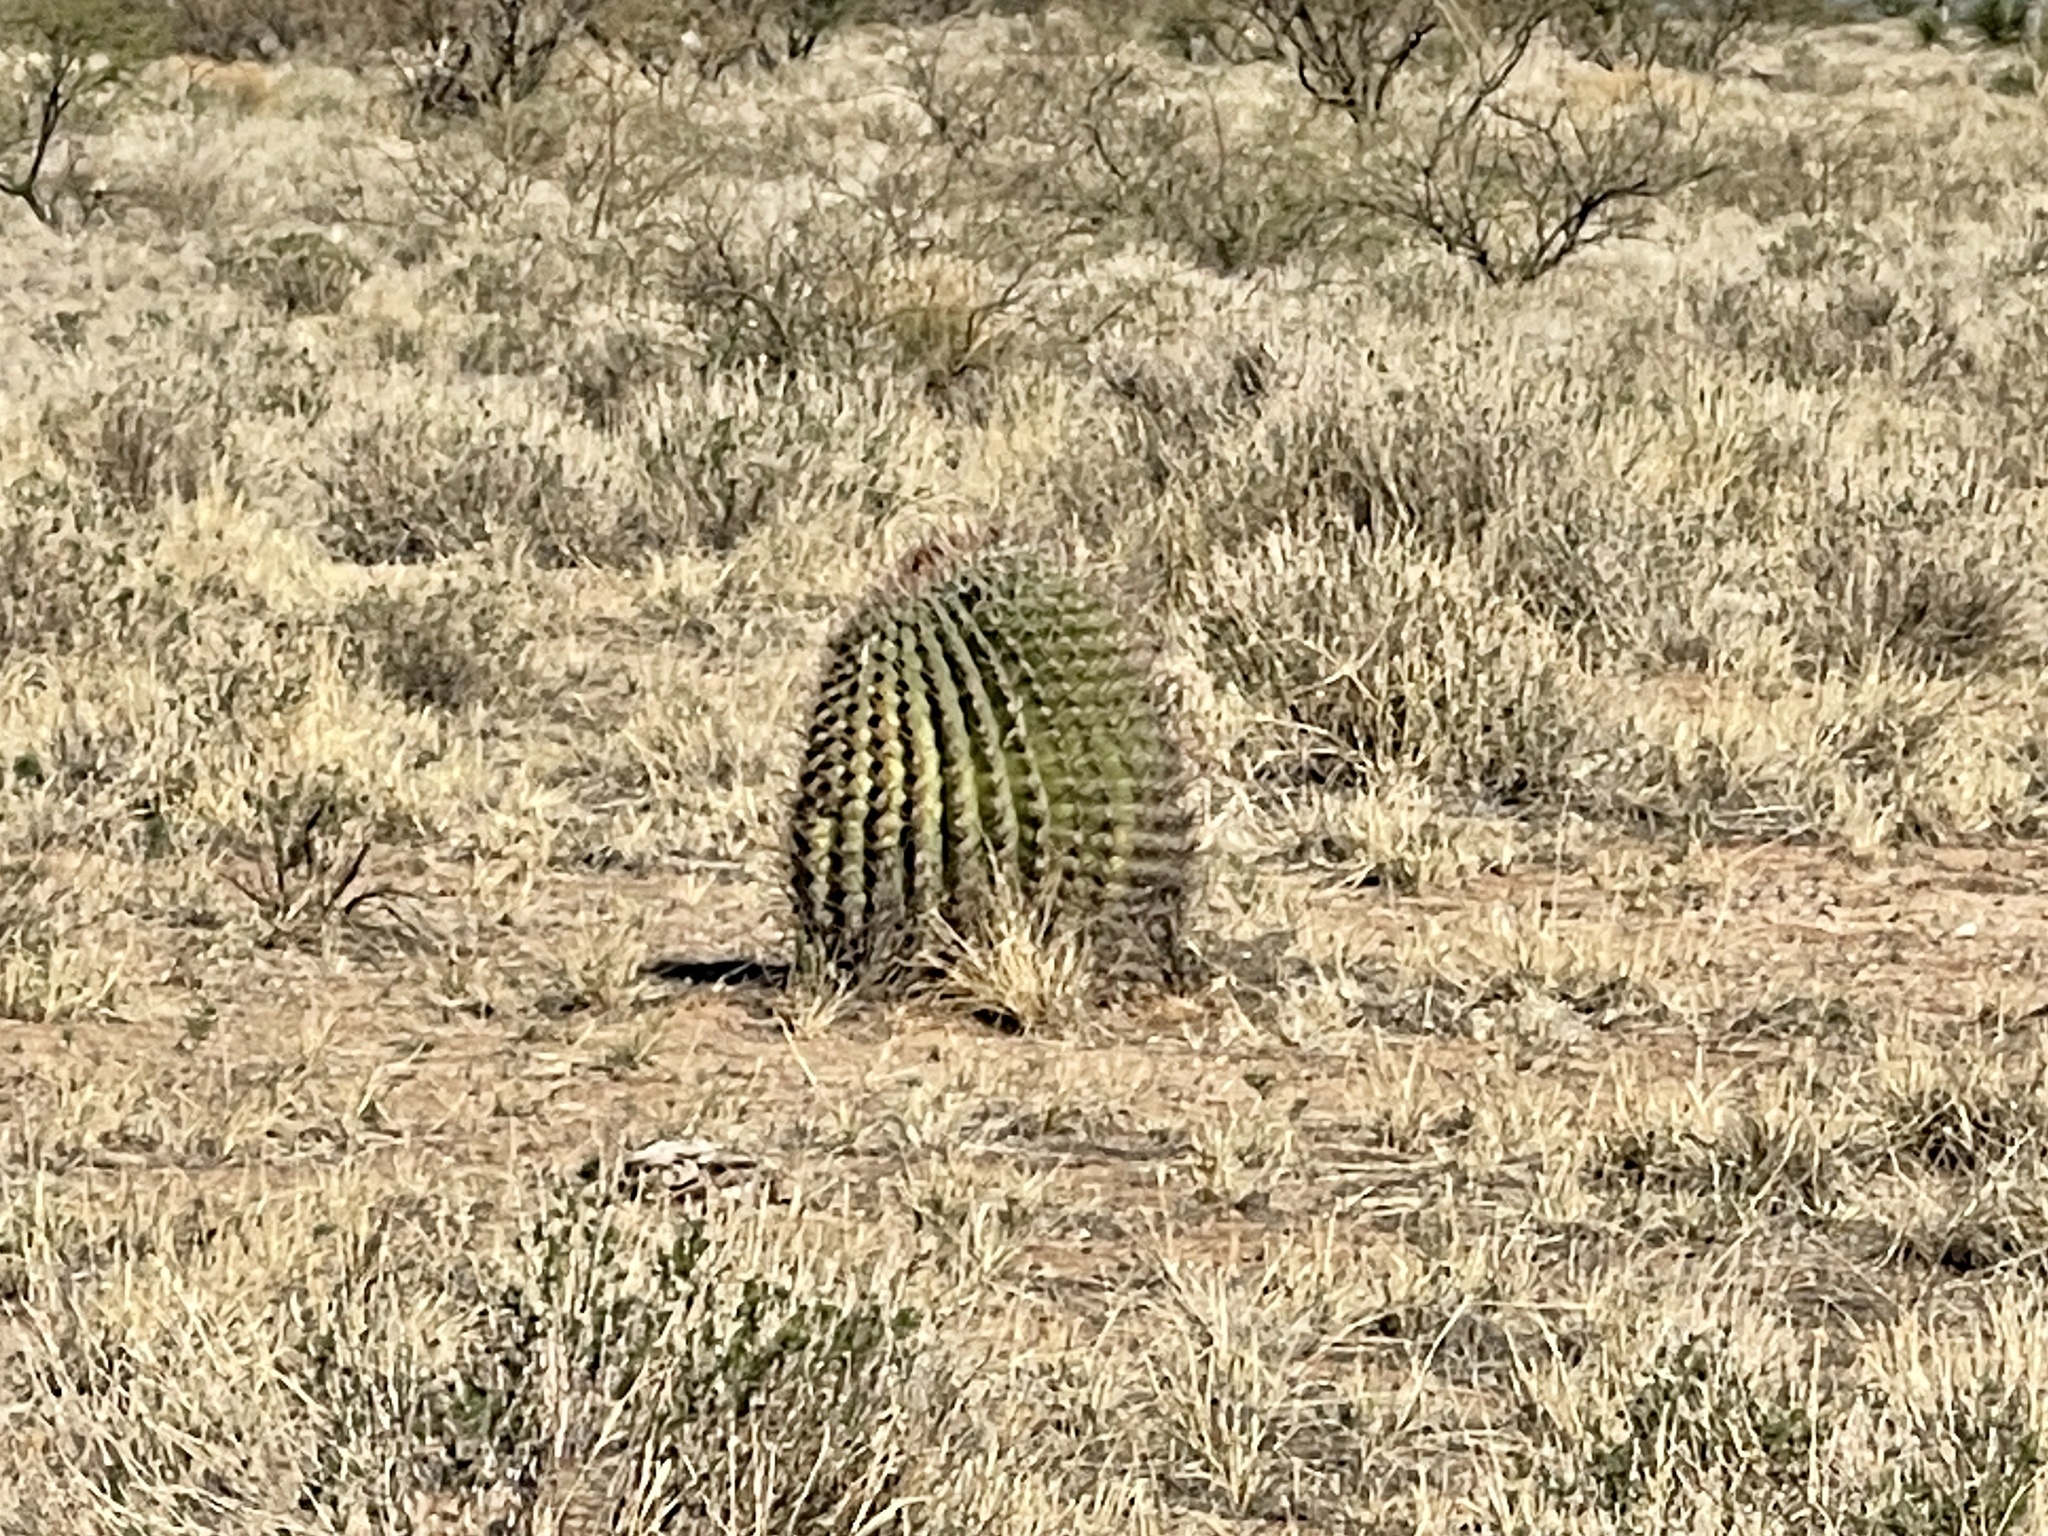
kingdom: Plantae
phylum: Tracheophyta
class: Magnoliopsida
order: Caryophyllales
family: Cactaceae
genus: Ferocactus
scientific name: Ferocactus wislizeni
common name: Candy barrel cactus
